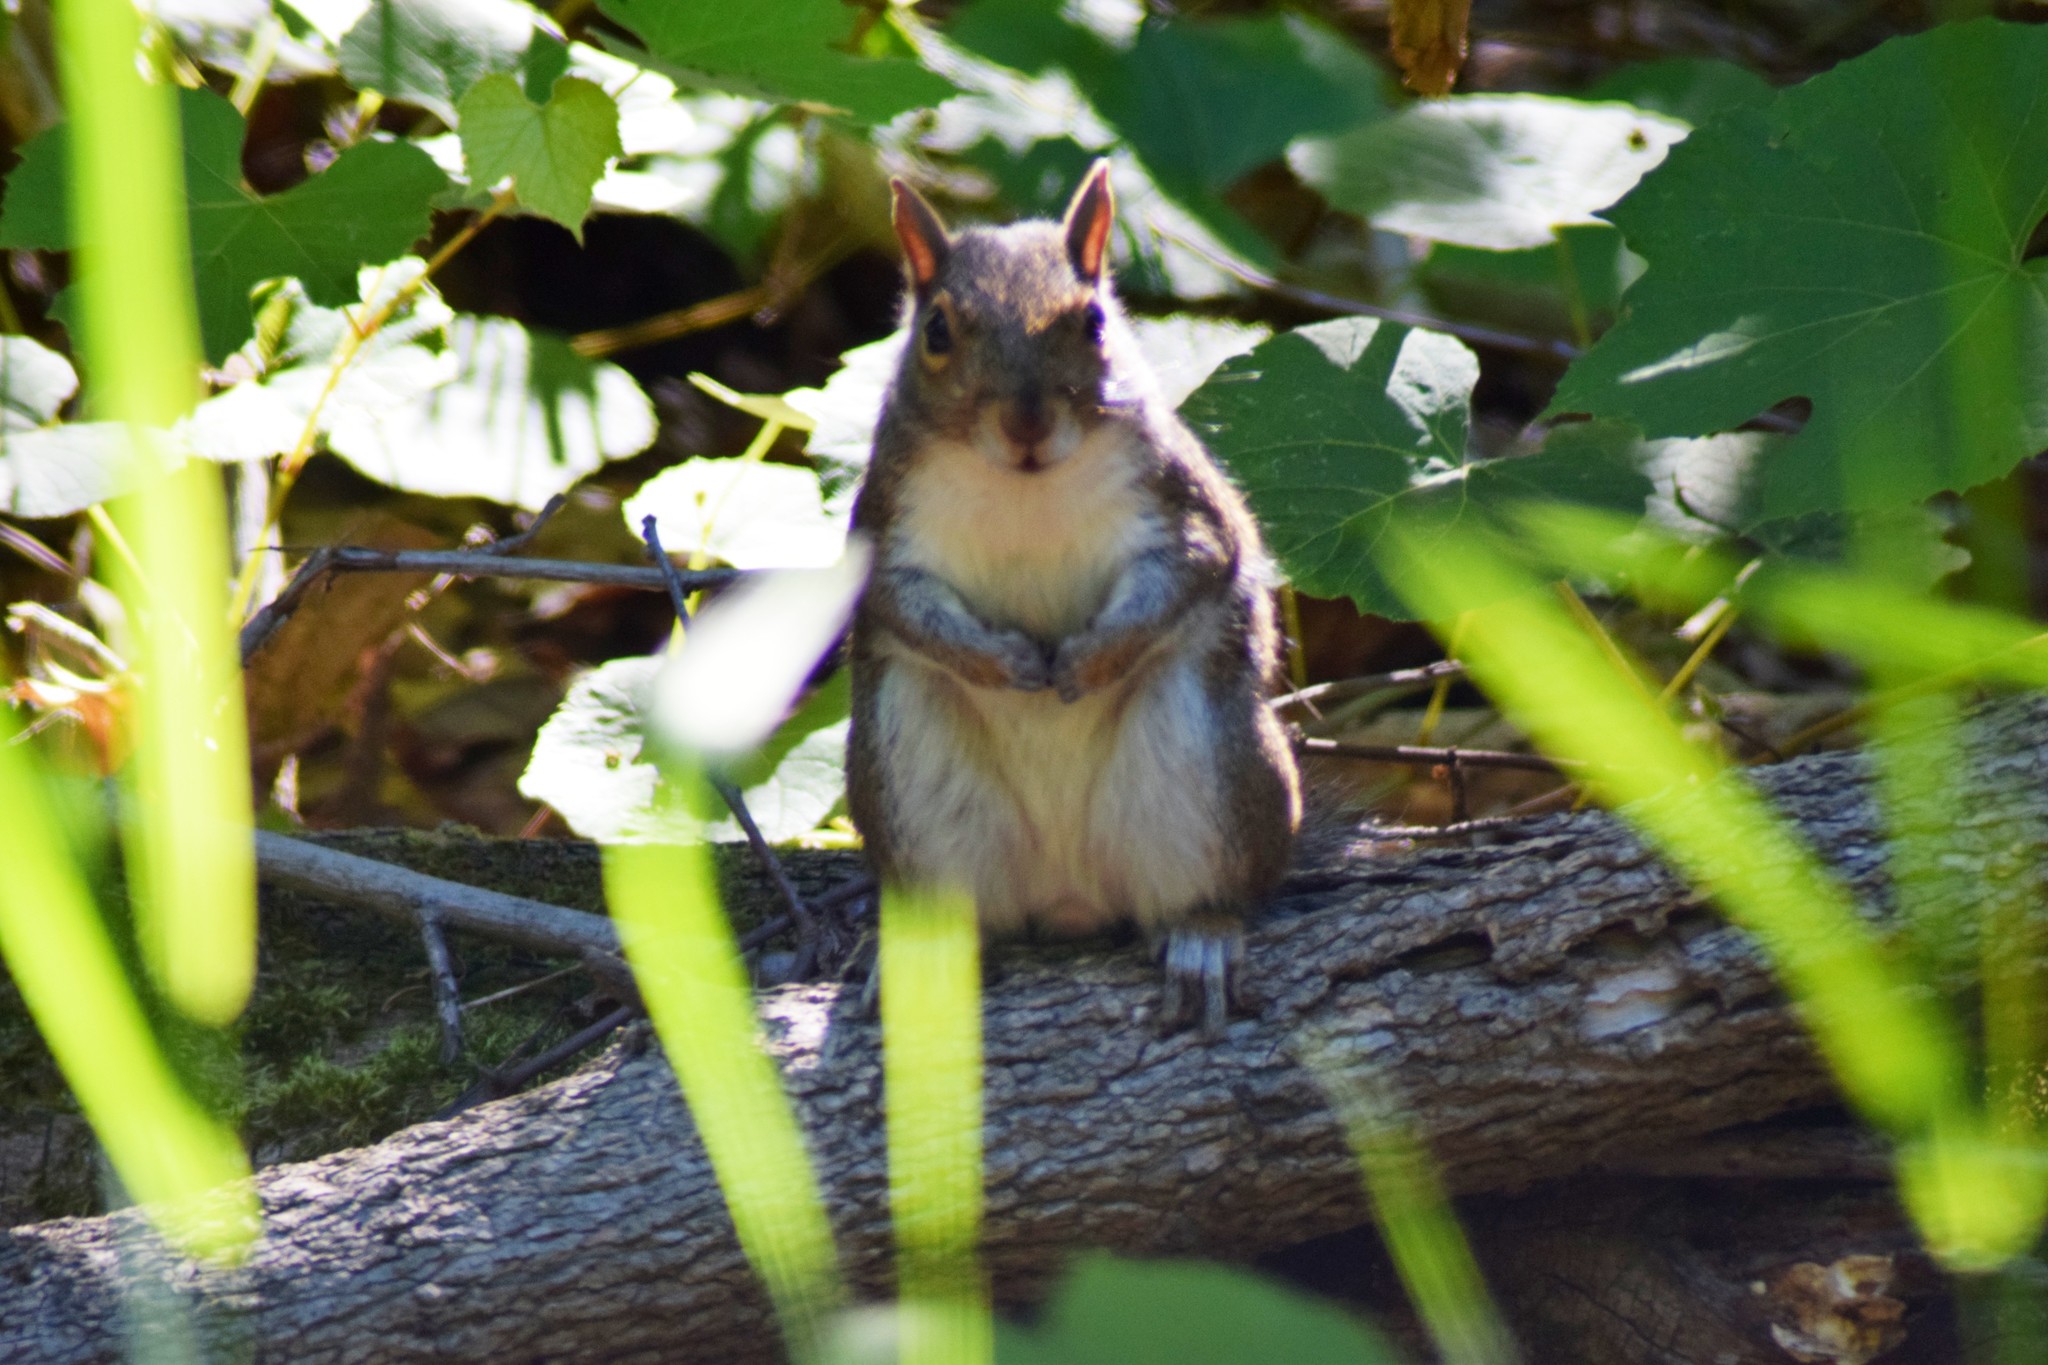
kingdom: Animalia
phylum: Chordata
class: Mammalia
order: Rodentia
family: Sciuridae
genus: Sciurus
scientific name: Sciurus carolinensis
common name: Eastern gray squirrel
